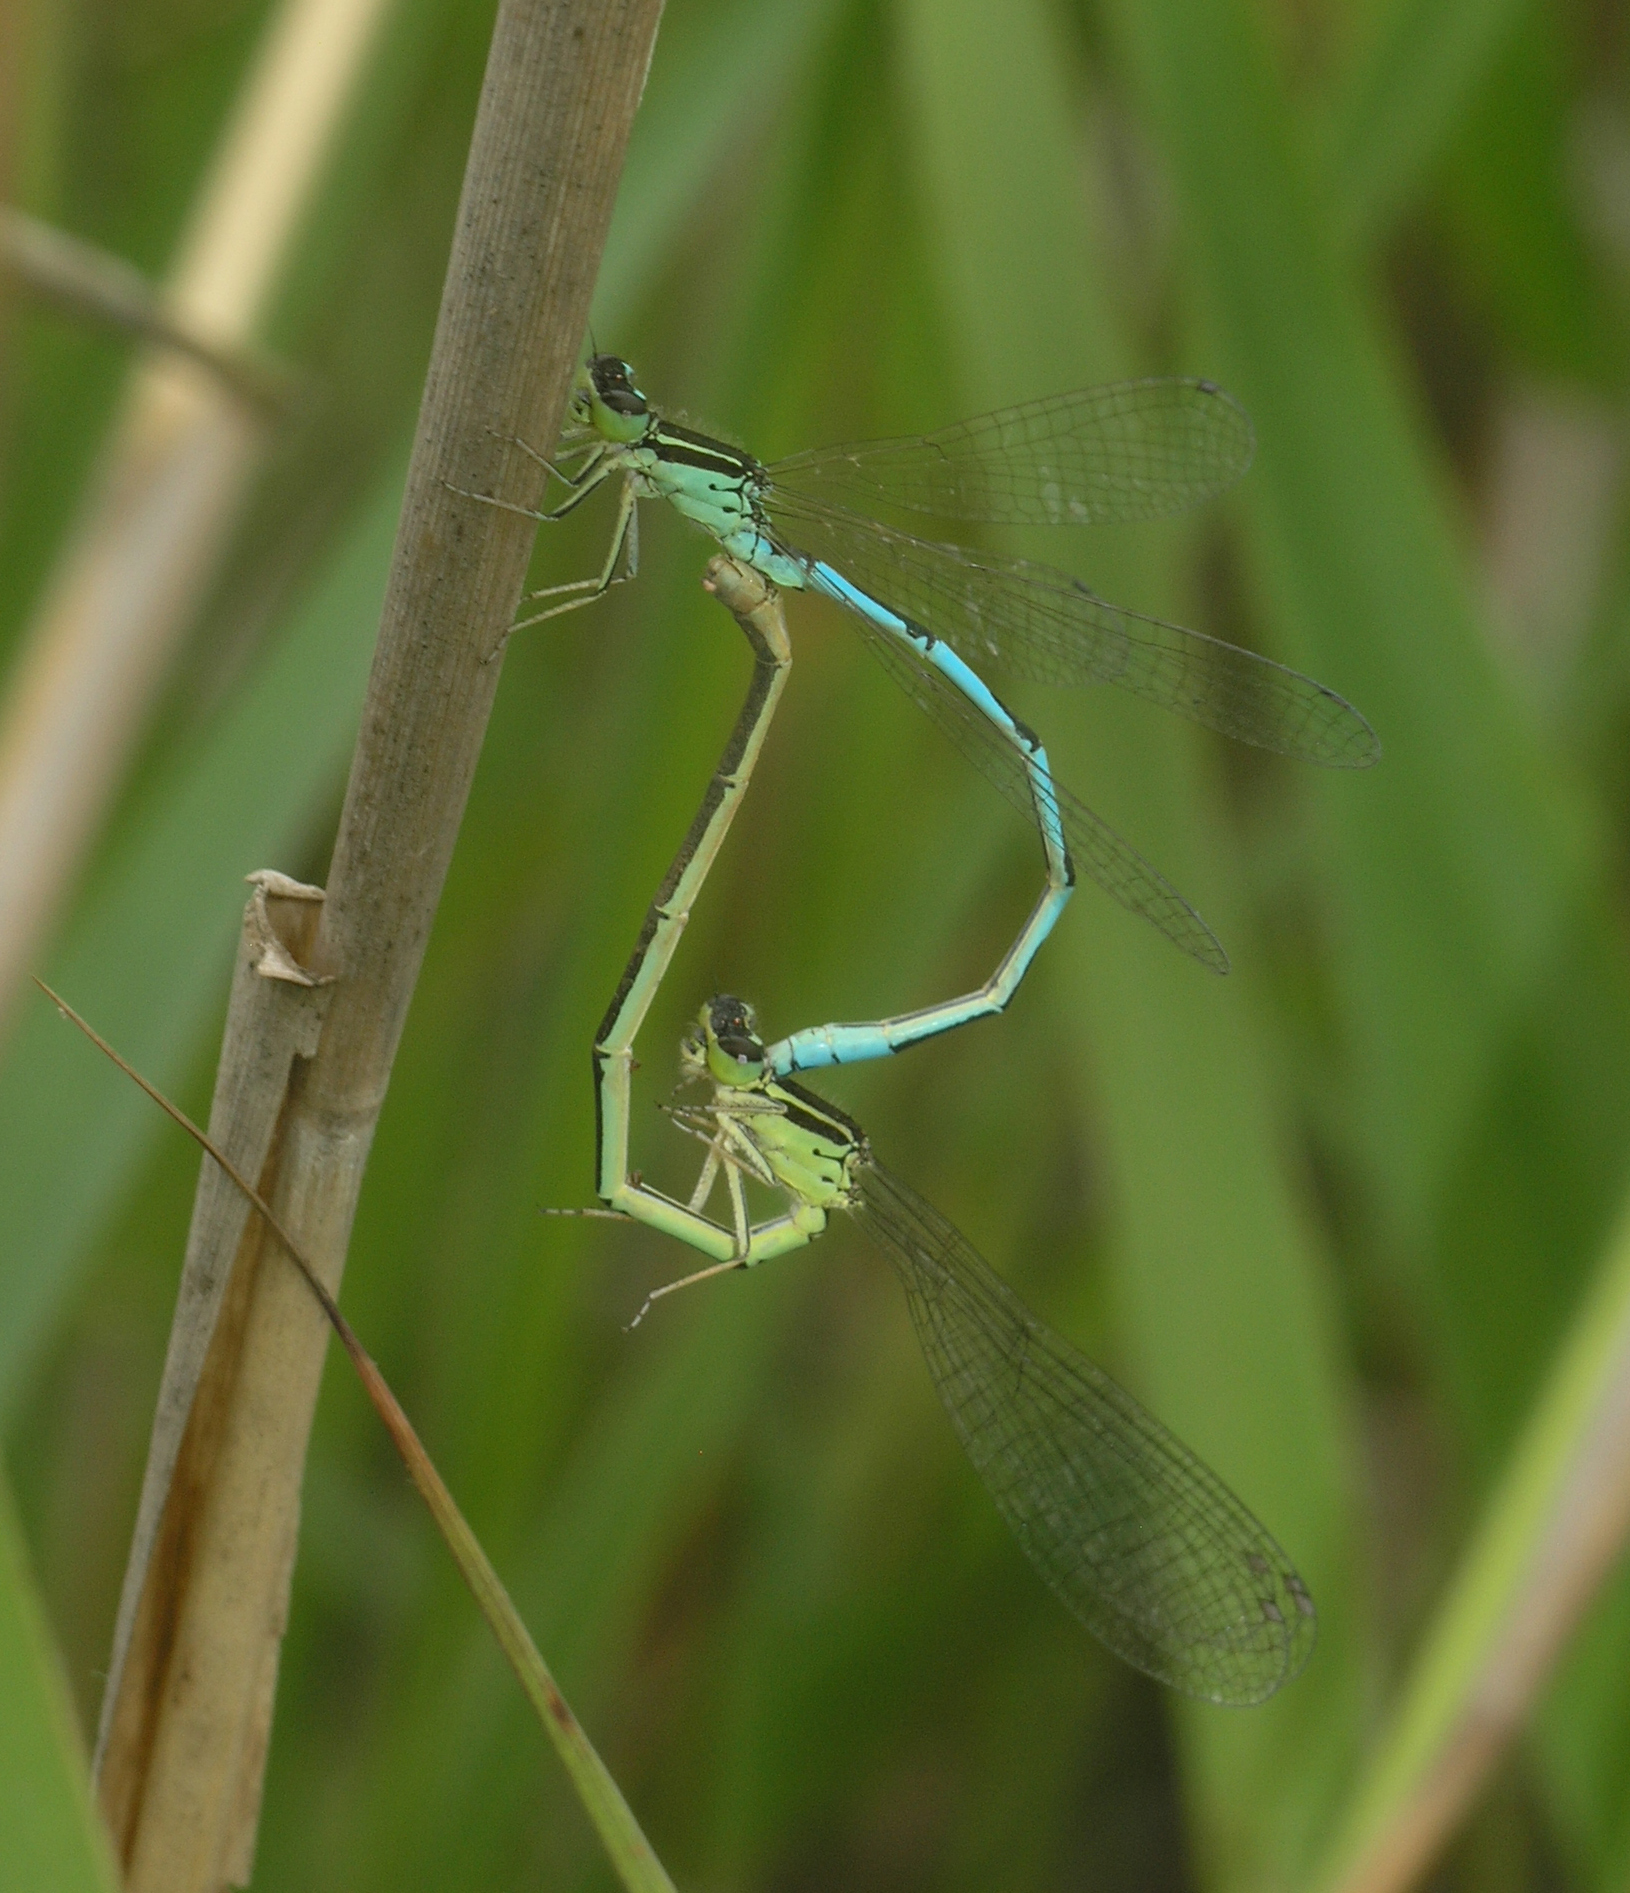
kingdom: Animalia
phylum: Arthropoda
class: Insecta
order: Odonata
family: Coenagrionidae
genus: Coenagrion
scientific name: Coenagrion ecornutum
